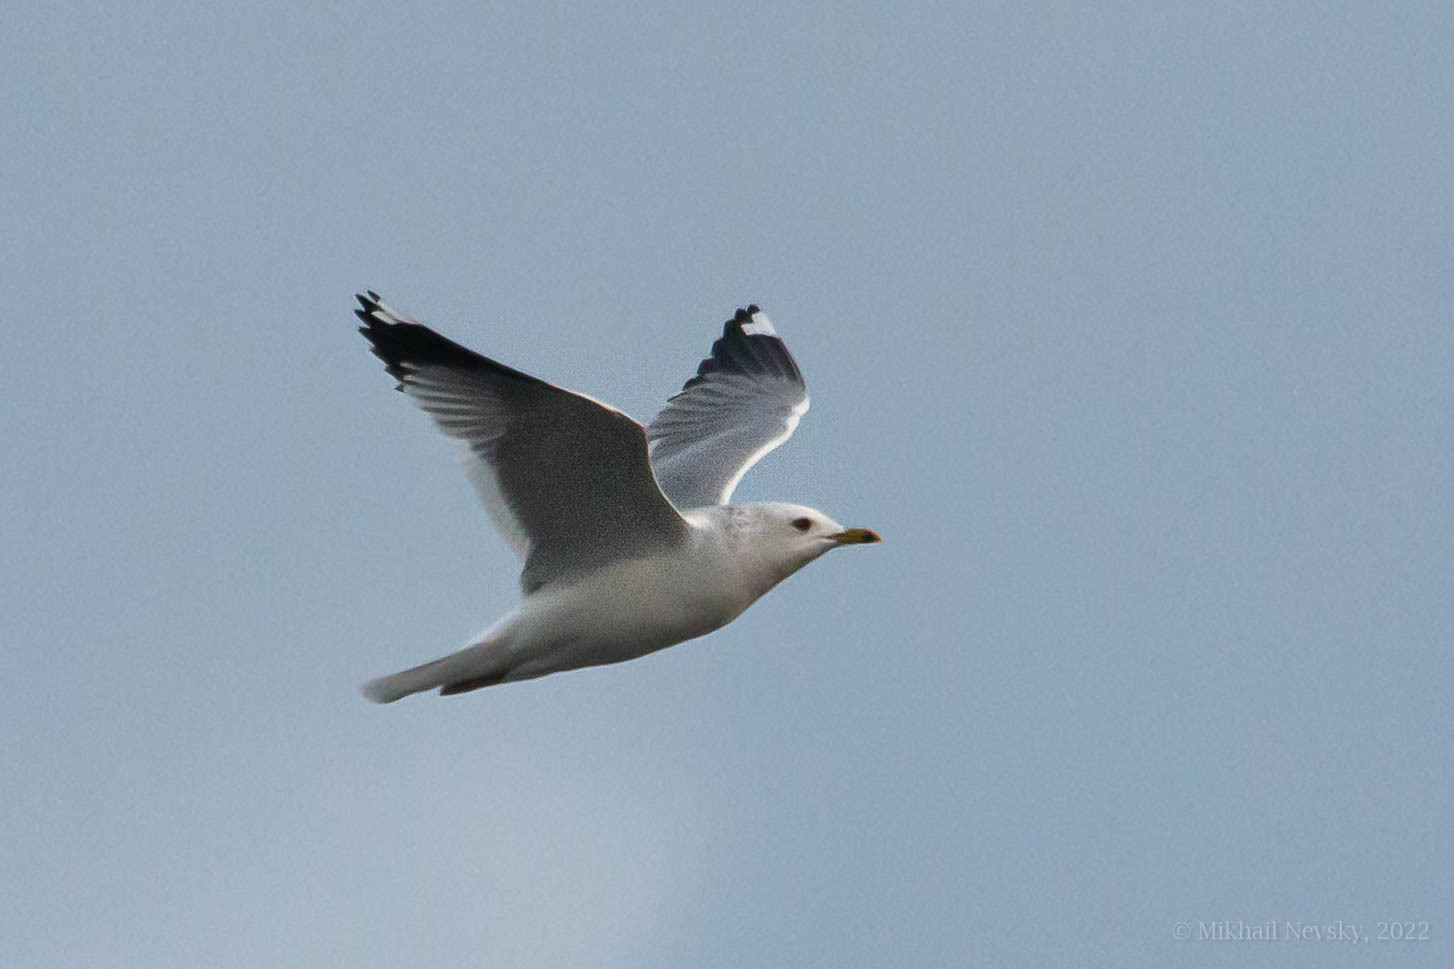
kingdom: Animalia
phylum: Chordata
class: Aves
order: Charadriiformes
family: Laridae
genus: Larus
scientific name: Larus canus
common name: Mew gull
